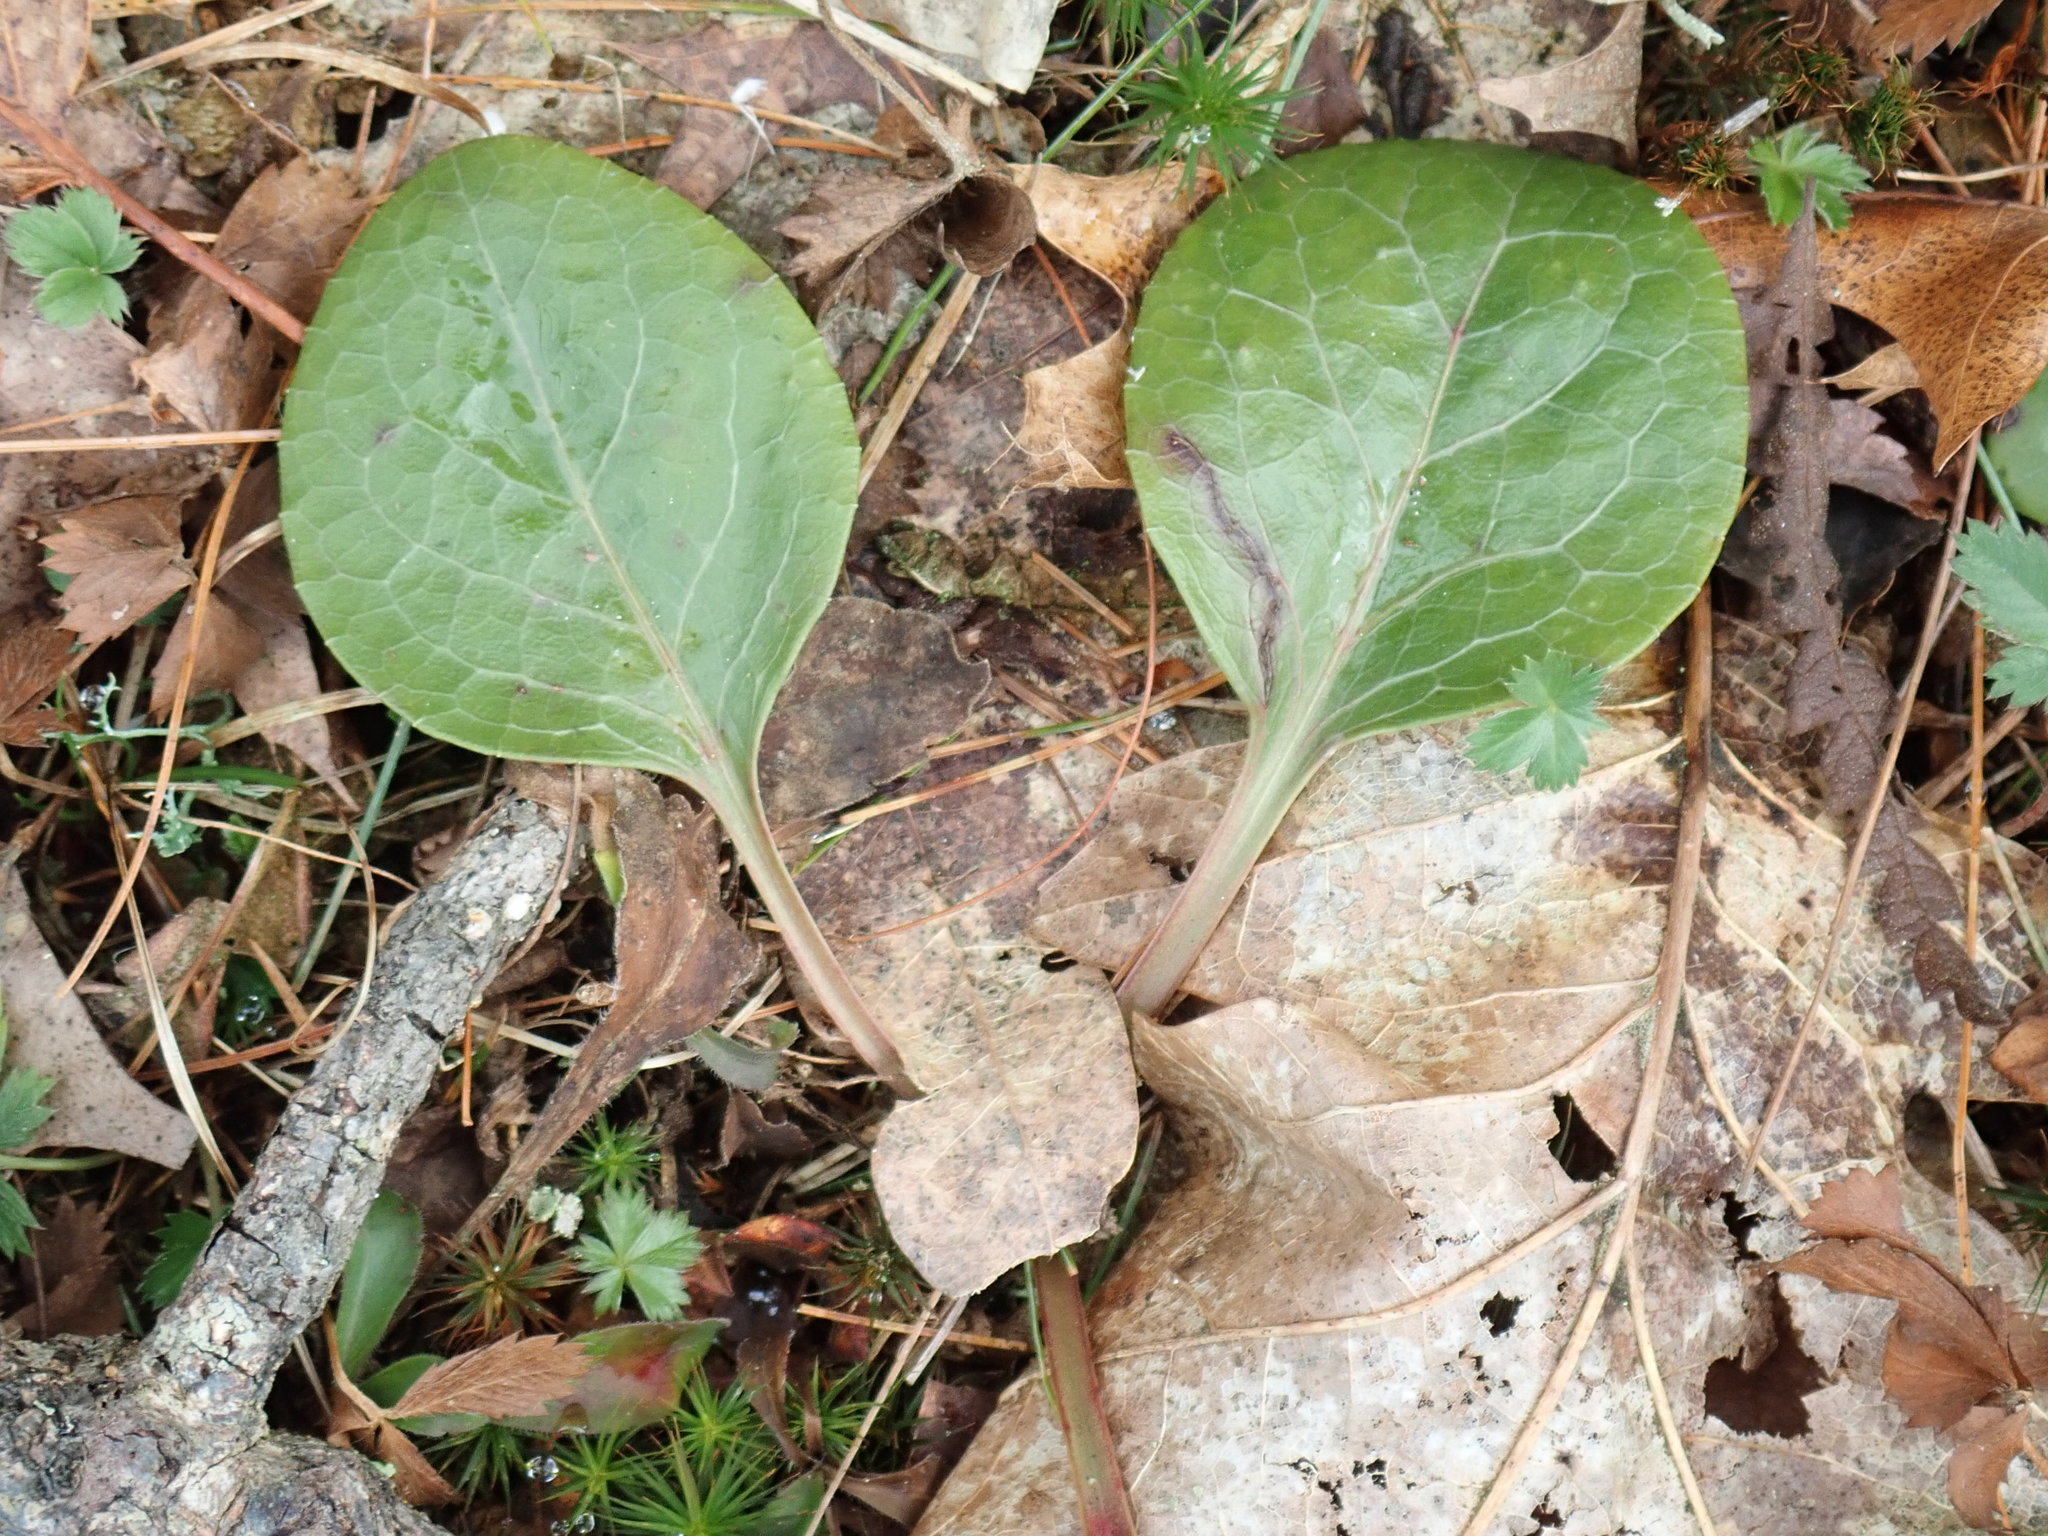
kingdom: Plantae
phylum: Tracheophyta
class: Magnoliopsida
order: Ericales
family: Ericaceae
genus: Pyrola
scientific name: Pyrola americana
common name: American wintergreen
